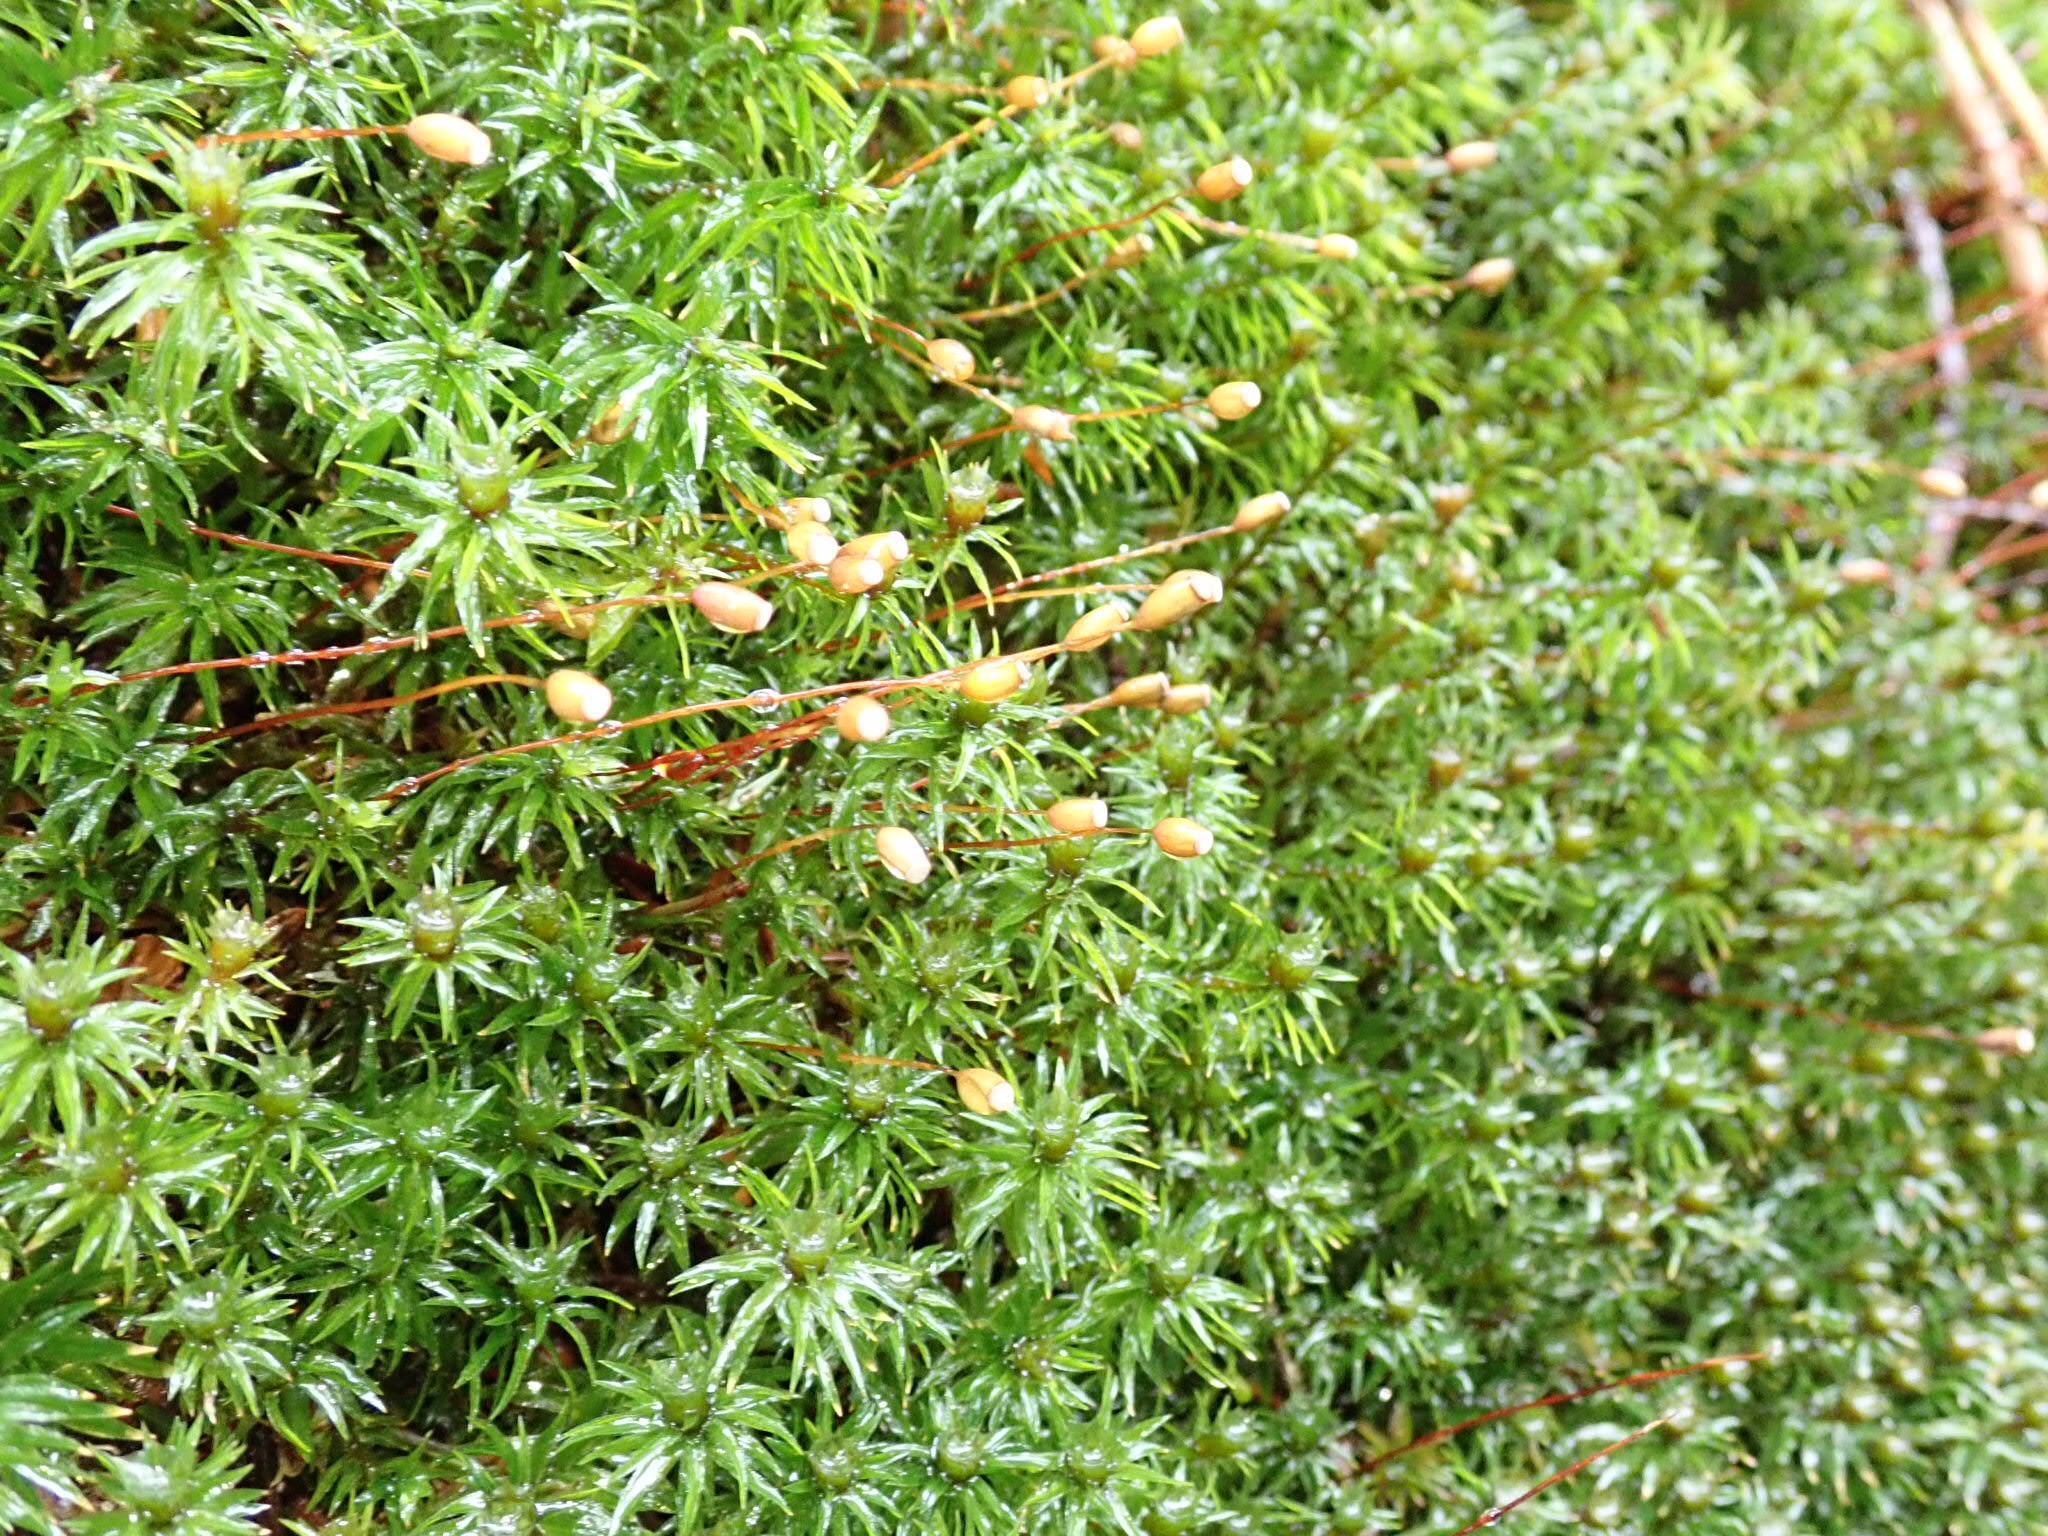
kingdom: Plantae
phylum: Bryophyta
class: Polytrichopsida
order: Polytrichales
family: Polytrichaceae
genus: Polytrichum
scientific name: Polytrichum juniperinum
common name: Juniper haircap moss
